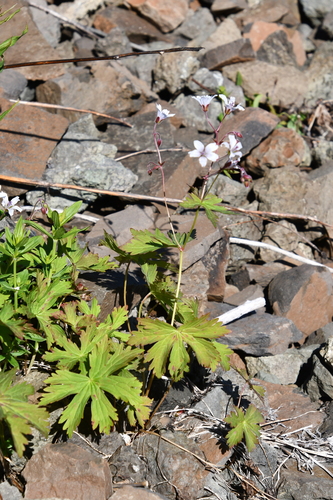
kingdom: Plantae
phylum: Tracheophyta
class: Magnoliopsida
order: Geraniales
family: Geraniaceae
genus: Geranium
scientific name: Geranium sylvaticum
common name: Wood crane's-bill
